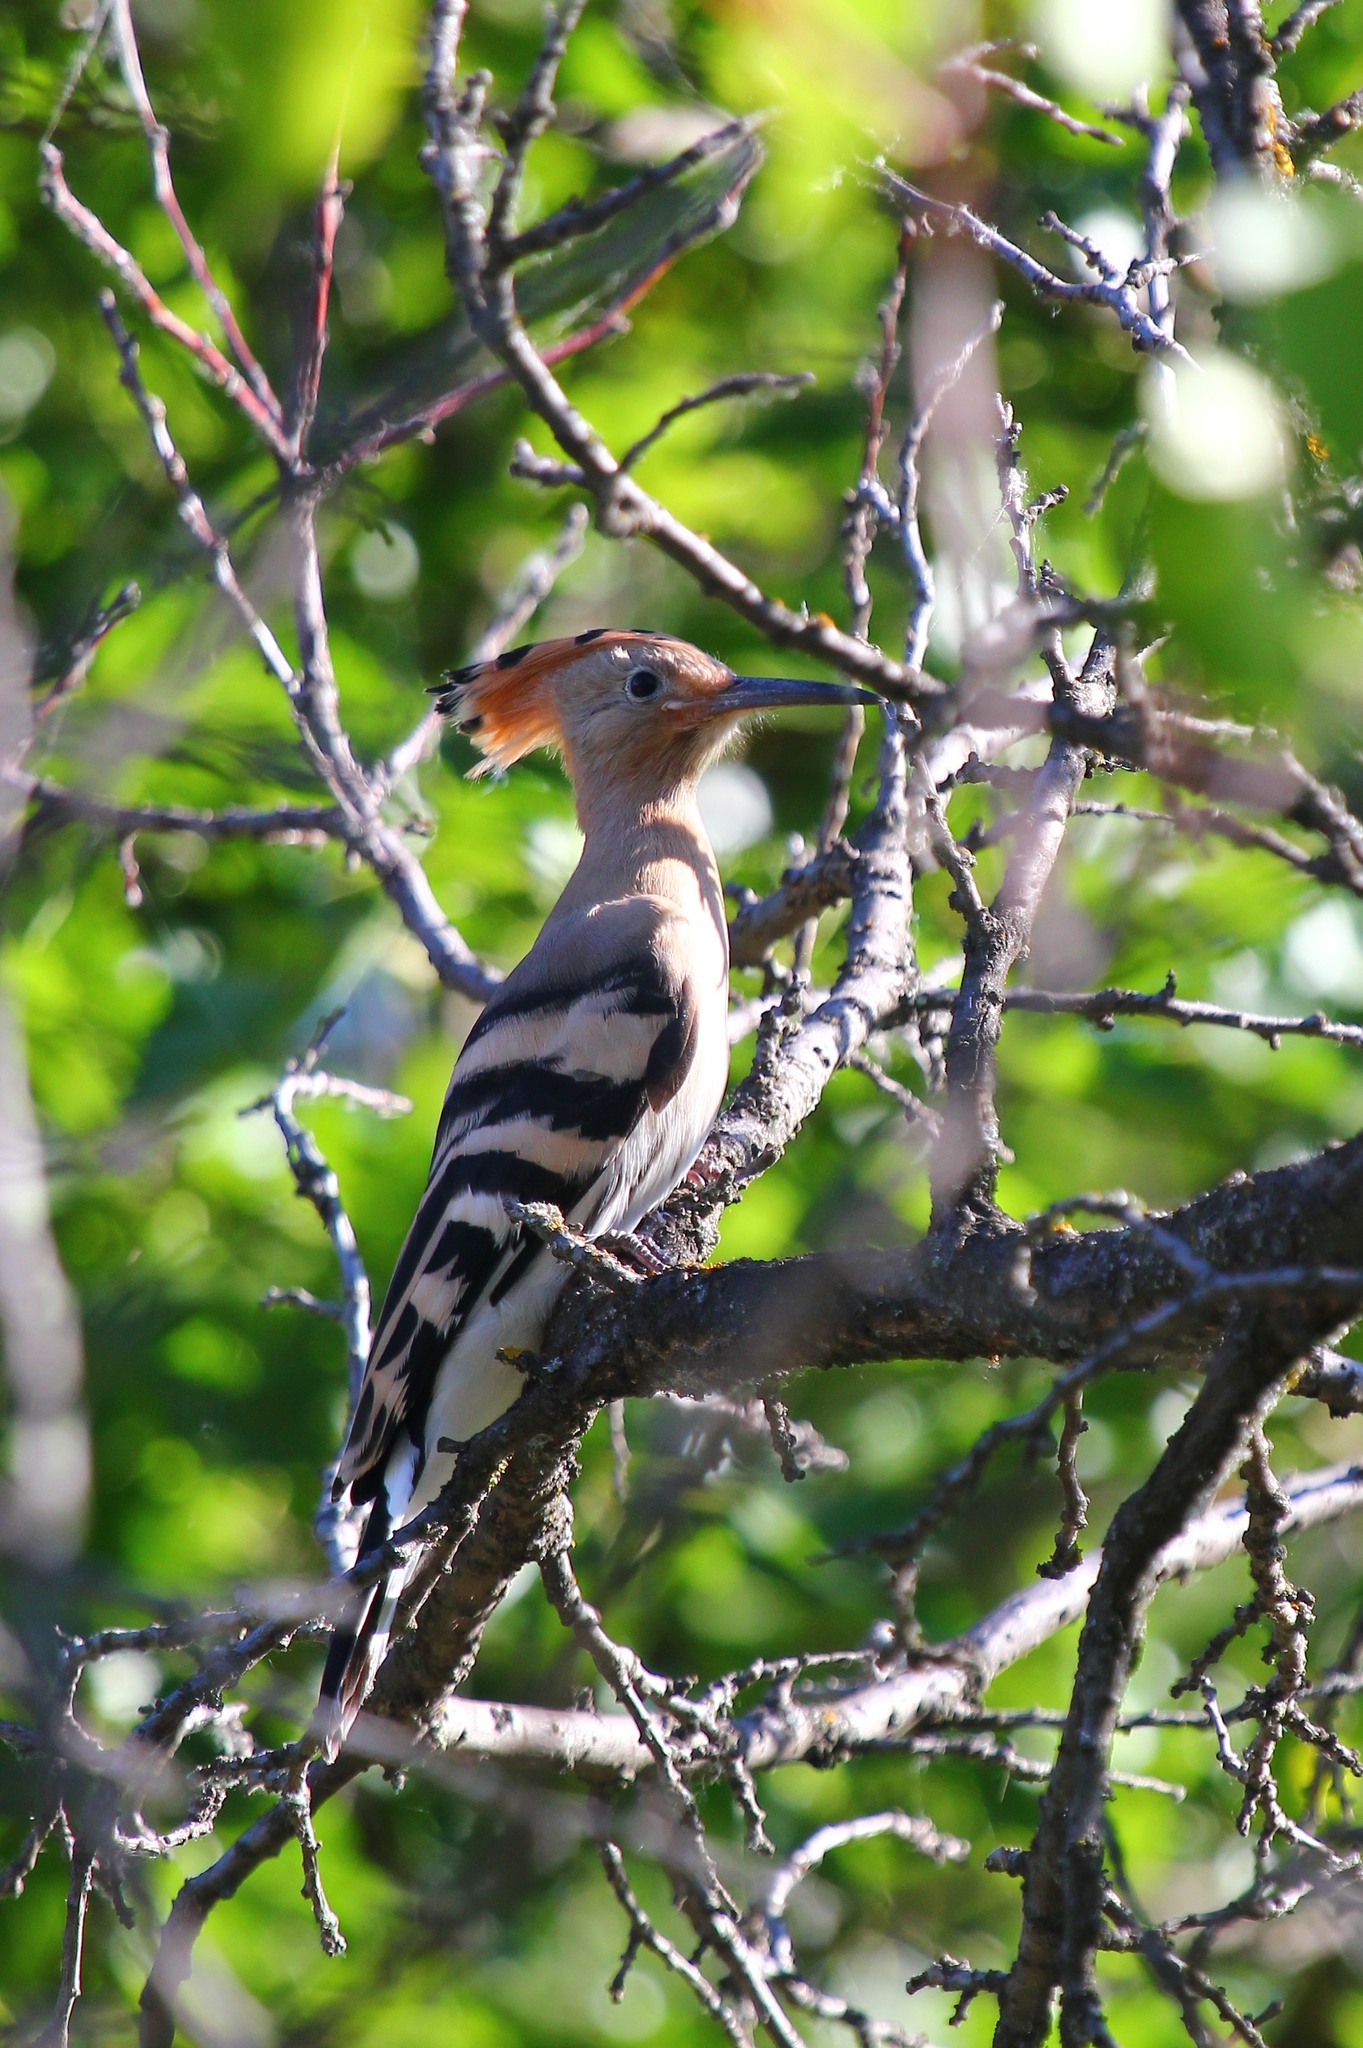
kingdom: Animalia
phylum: Chordata
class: Aves
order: Bucerotiformes
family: Upupidae
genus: Upupa
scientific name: Upupa epops
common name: Eurasian hoopoe
